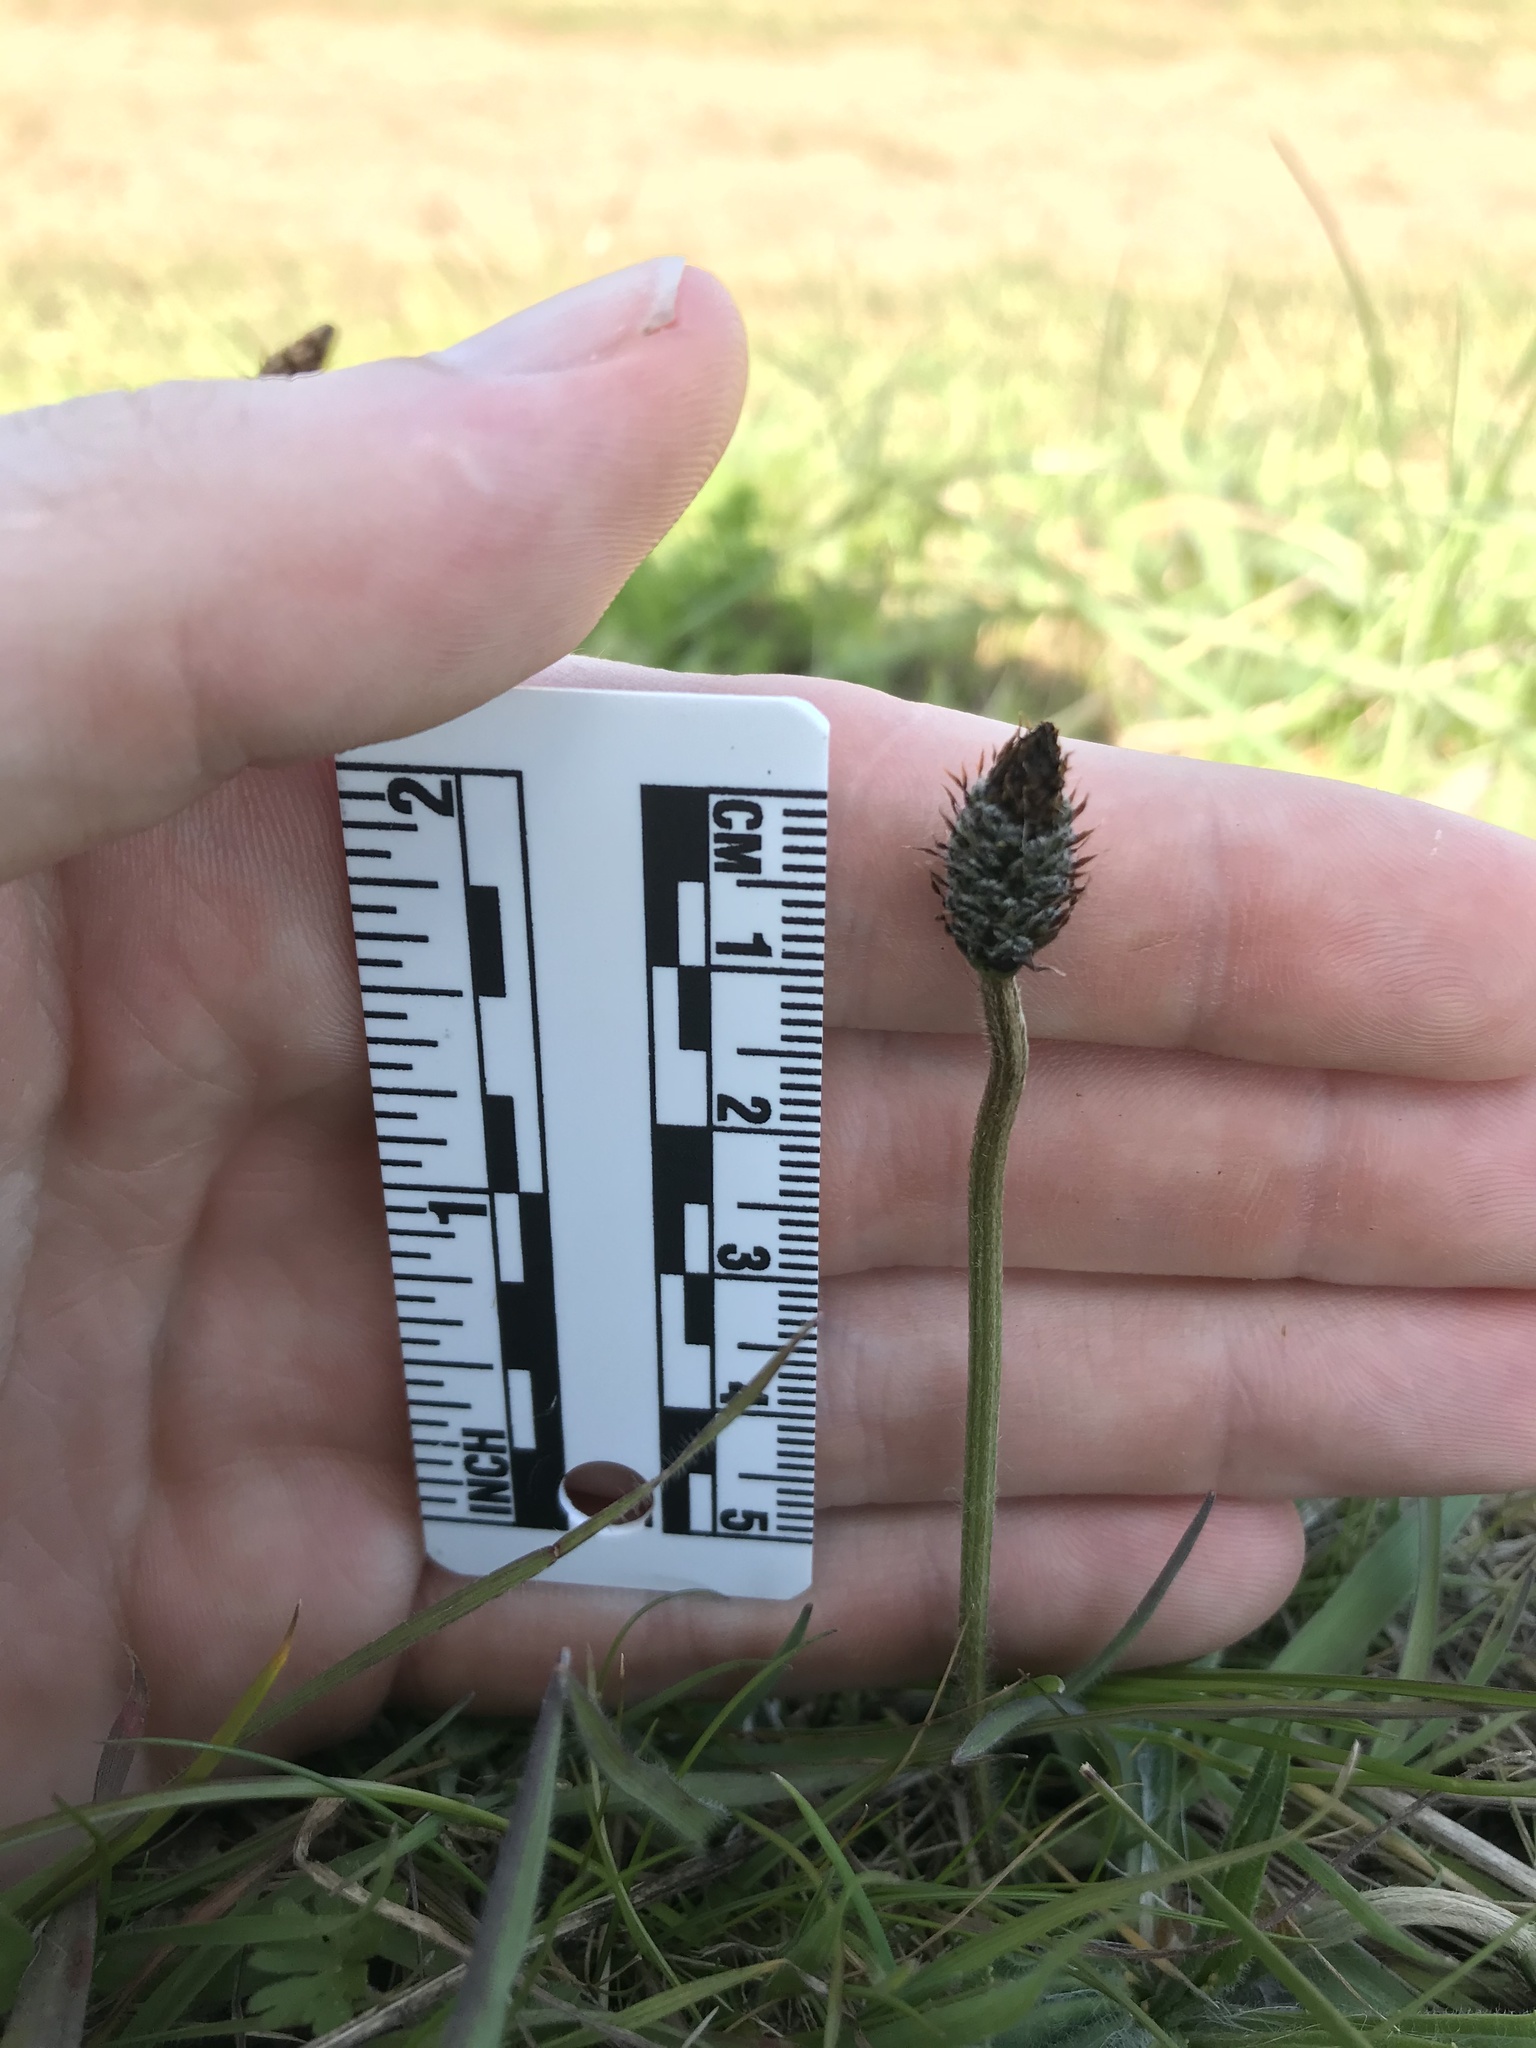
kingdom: Plantae
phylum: Tracheophyta
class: Magnoliopsida
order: Lamiales
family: Plantaginaceae
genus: Plantago
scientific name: Plantago lanceolata
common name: Ribwort plantain
